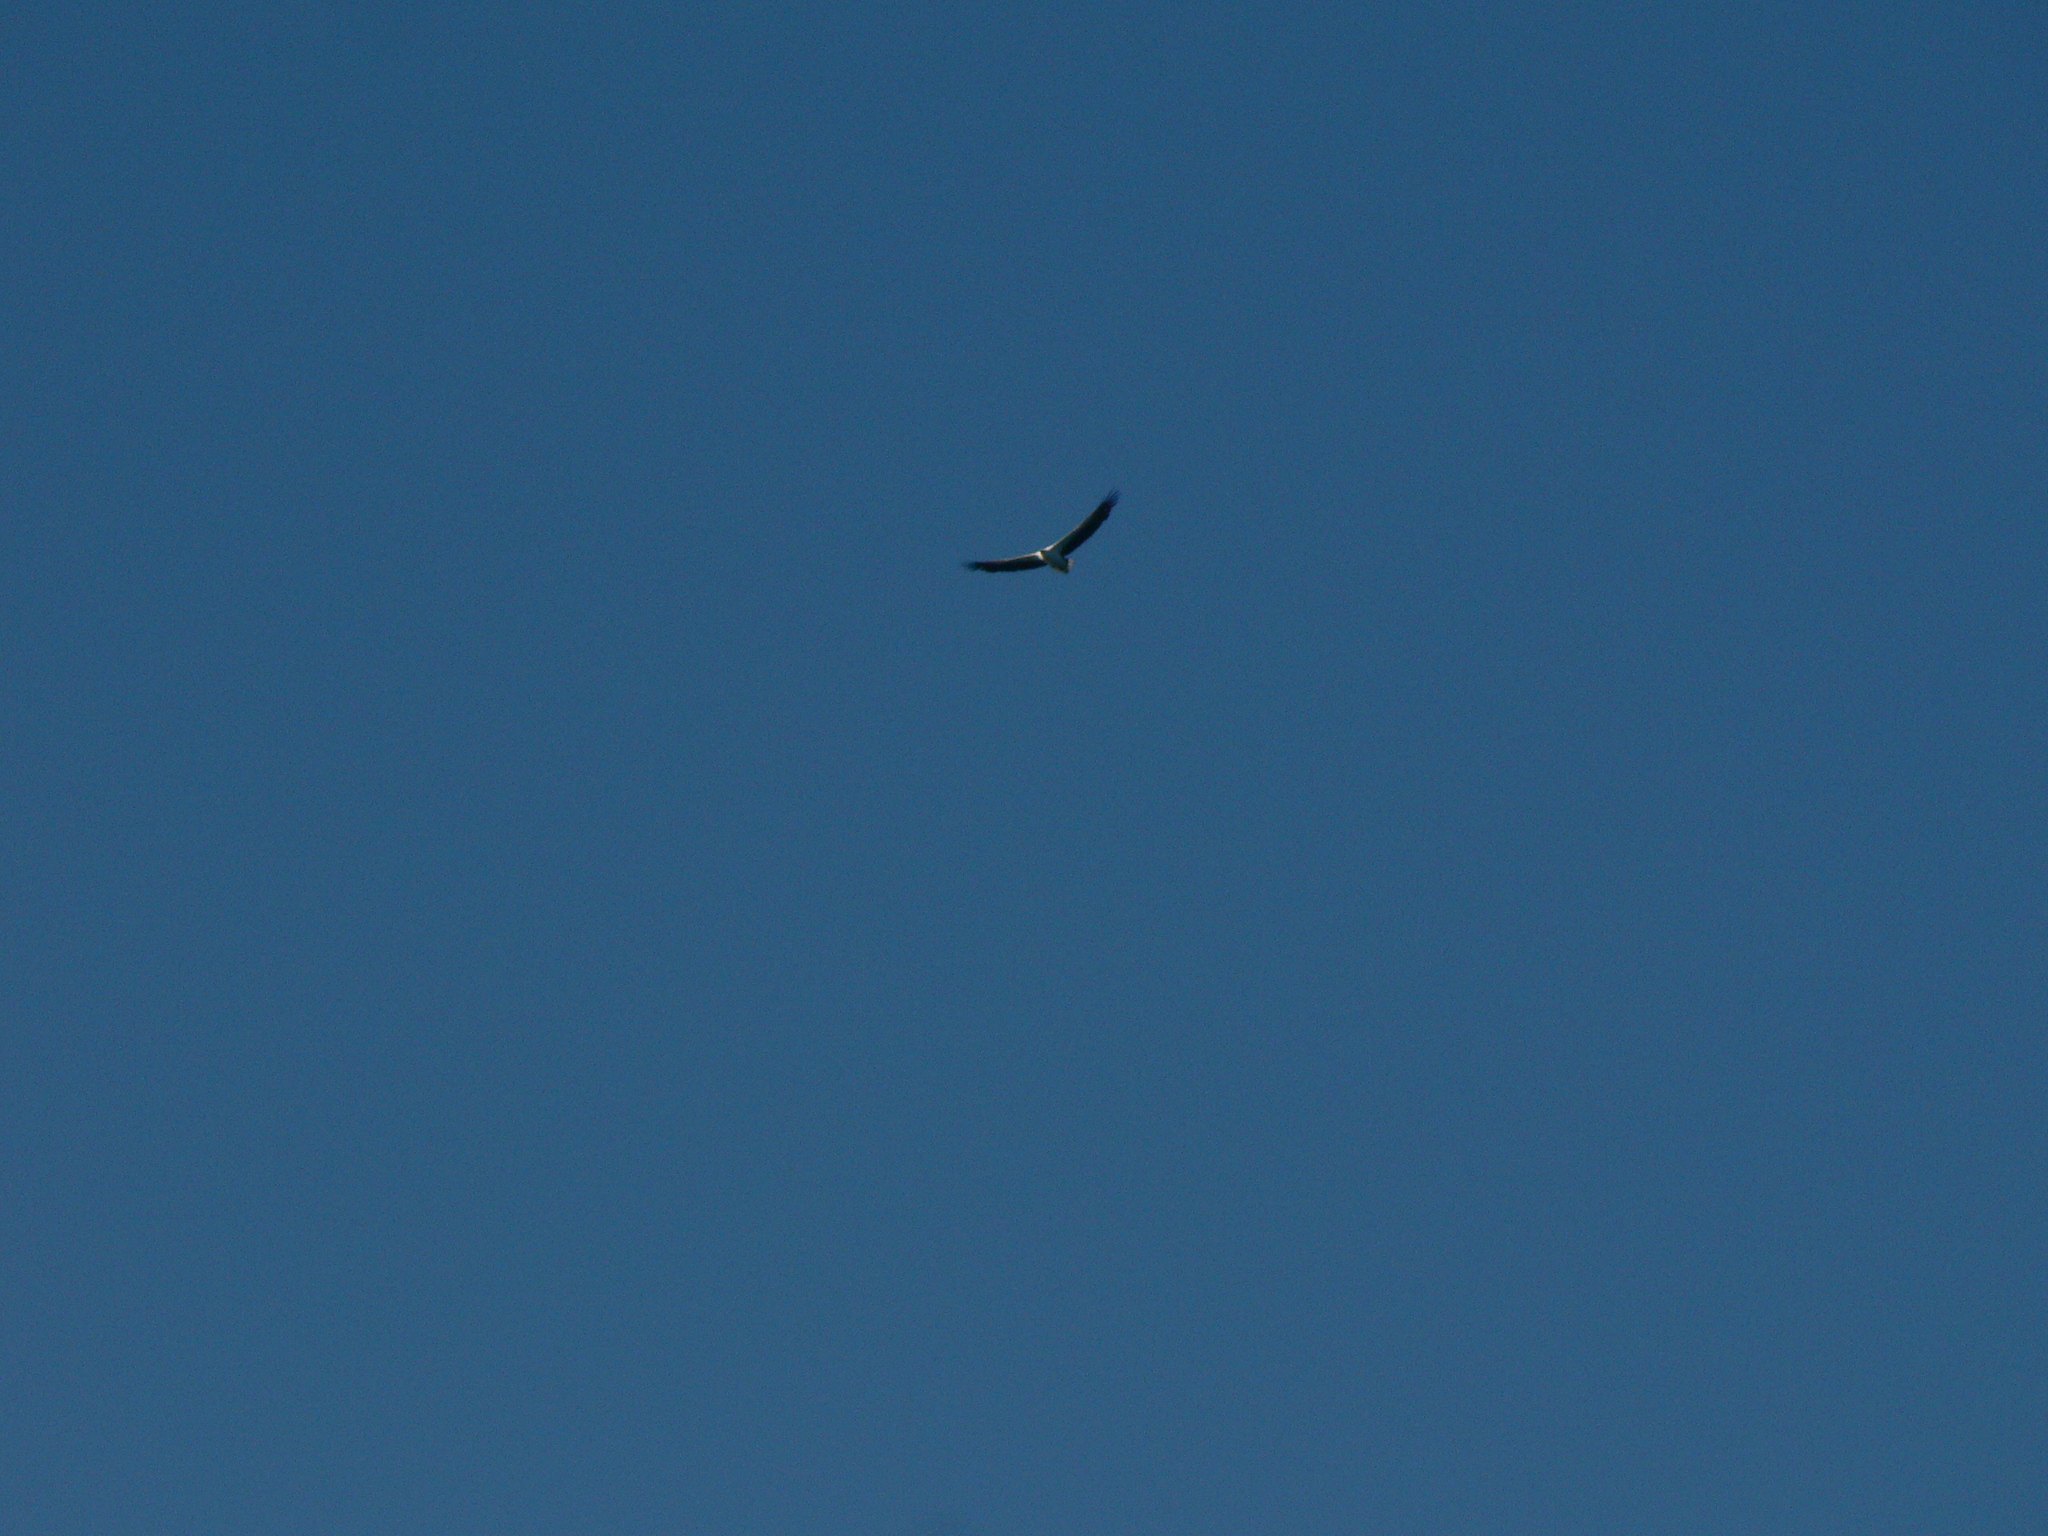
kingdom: Animalia
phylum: Chordata
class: Aves
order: Accipitriformes
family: Accipitridae
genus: Haliaeetus
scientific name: Haliaeetus leucogaster
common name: White-bellied sea eagle
